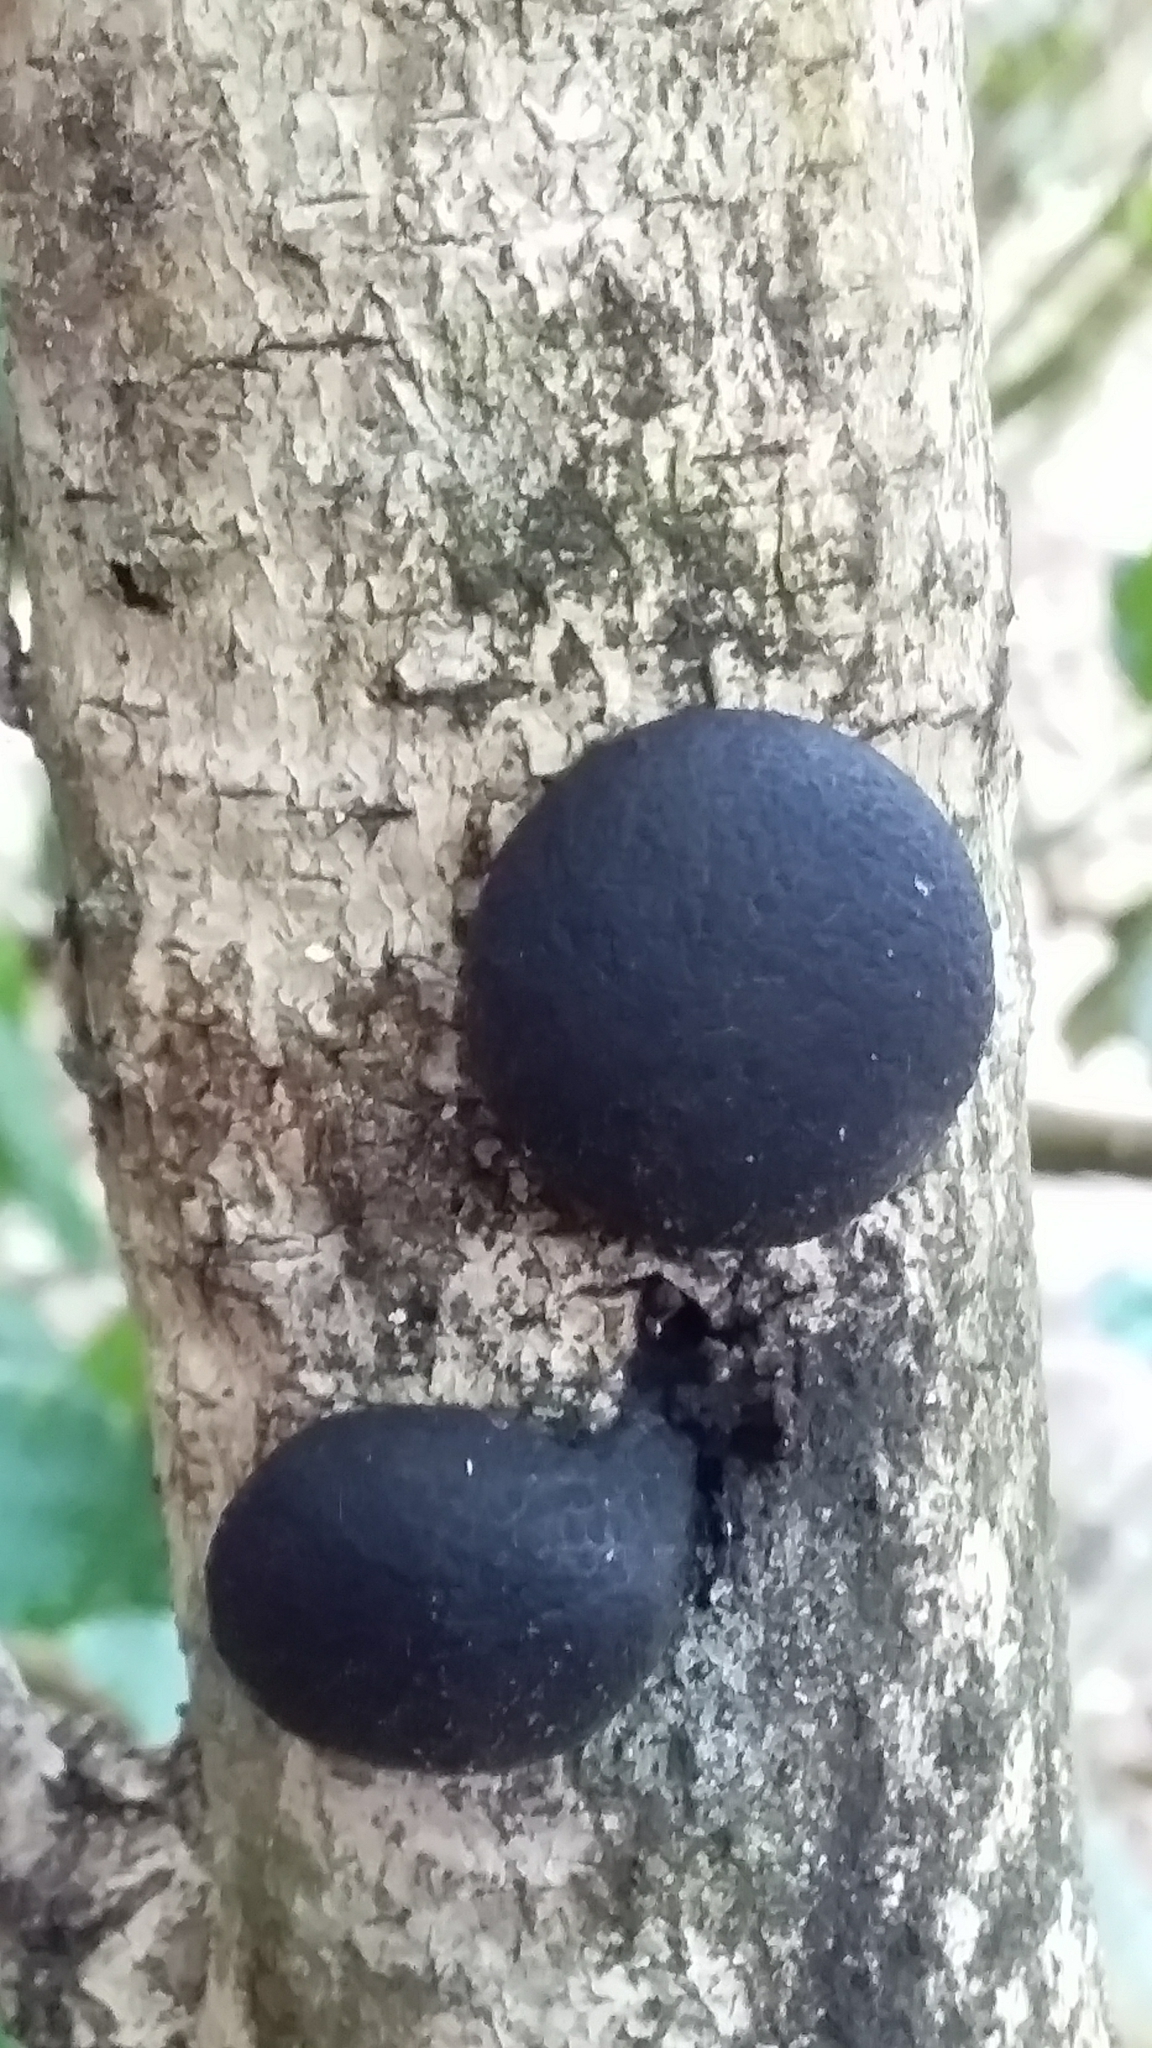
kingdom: Fungi
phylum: Ascomycota
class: Sordariomycetes
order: Xylariales
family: Hypoxylaceae
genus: Daldinia
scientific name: Daldinia
